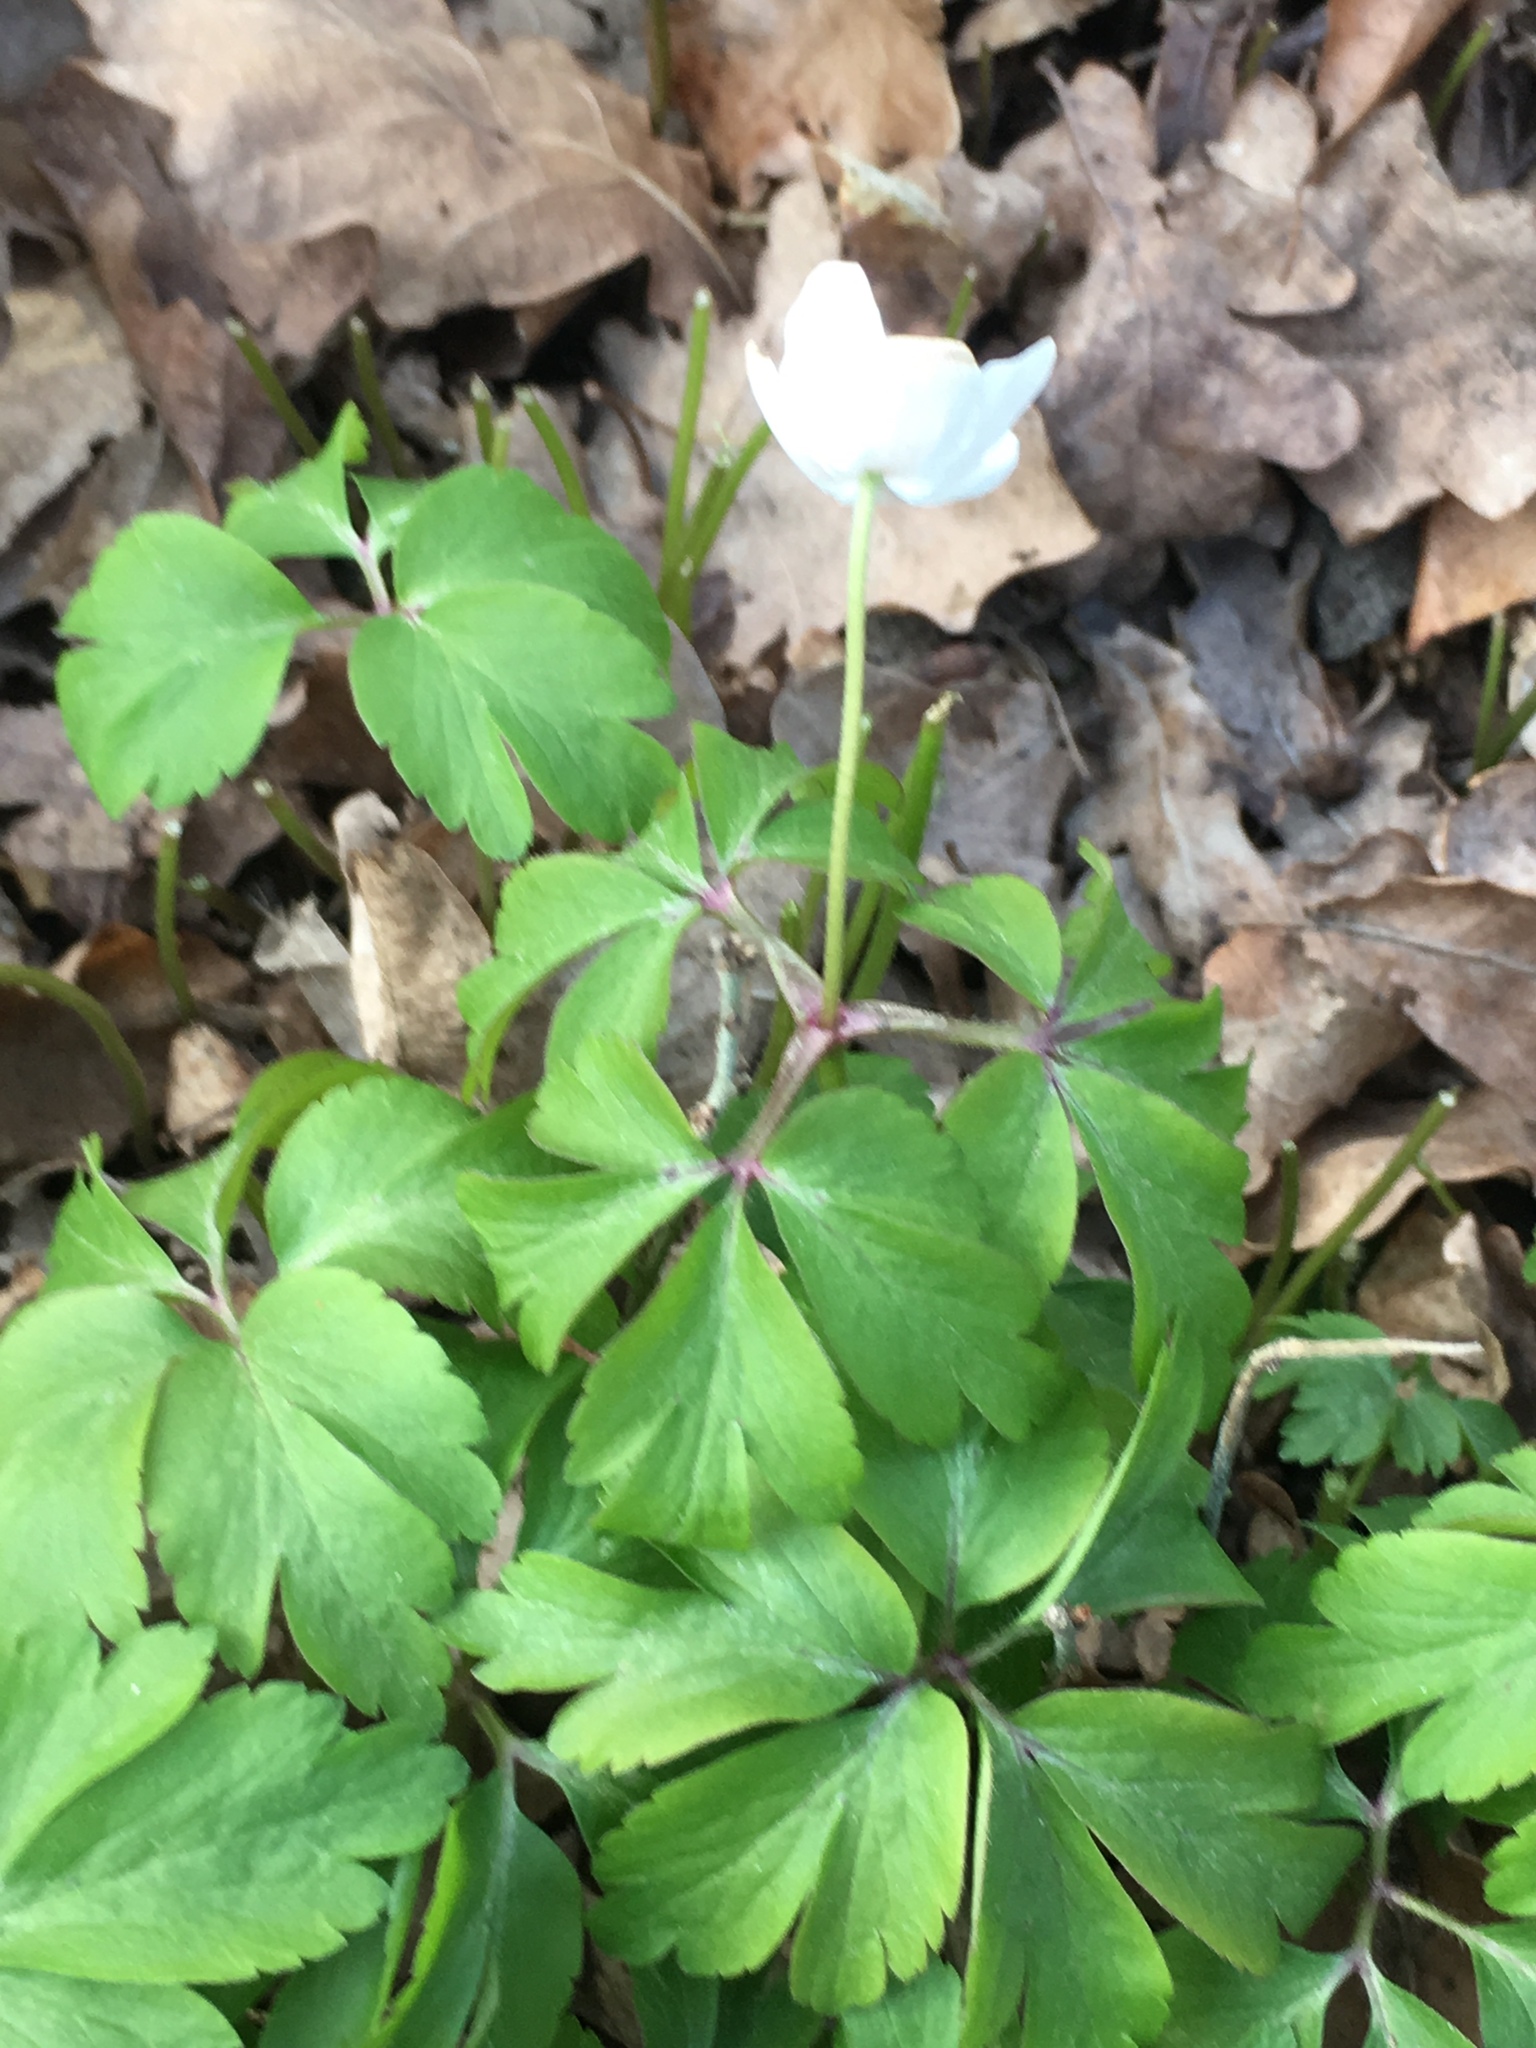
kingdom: Plantae
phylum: Tracheophyta
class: Magnoliopsida
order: Ranunculales
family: Ranunculaceae
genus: Anemone
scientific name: Anemone nemorosa
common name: Wood anemone
